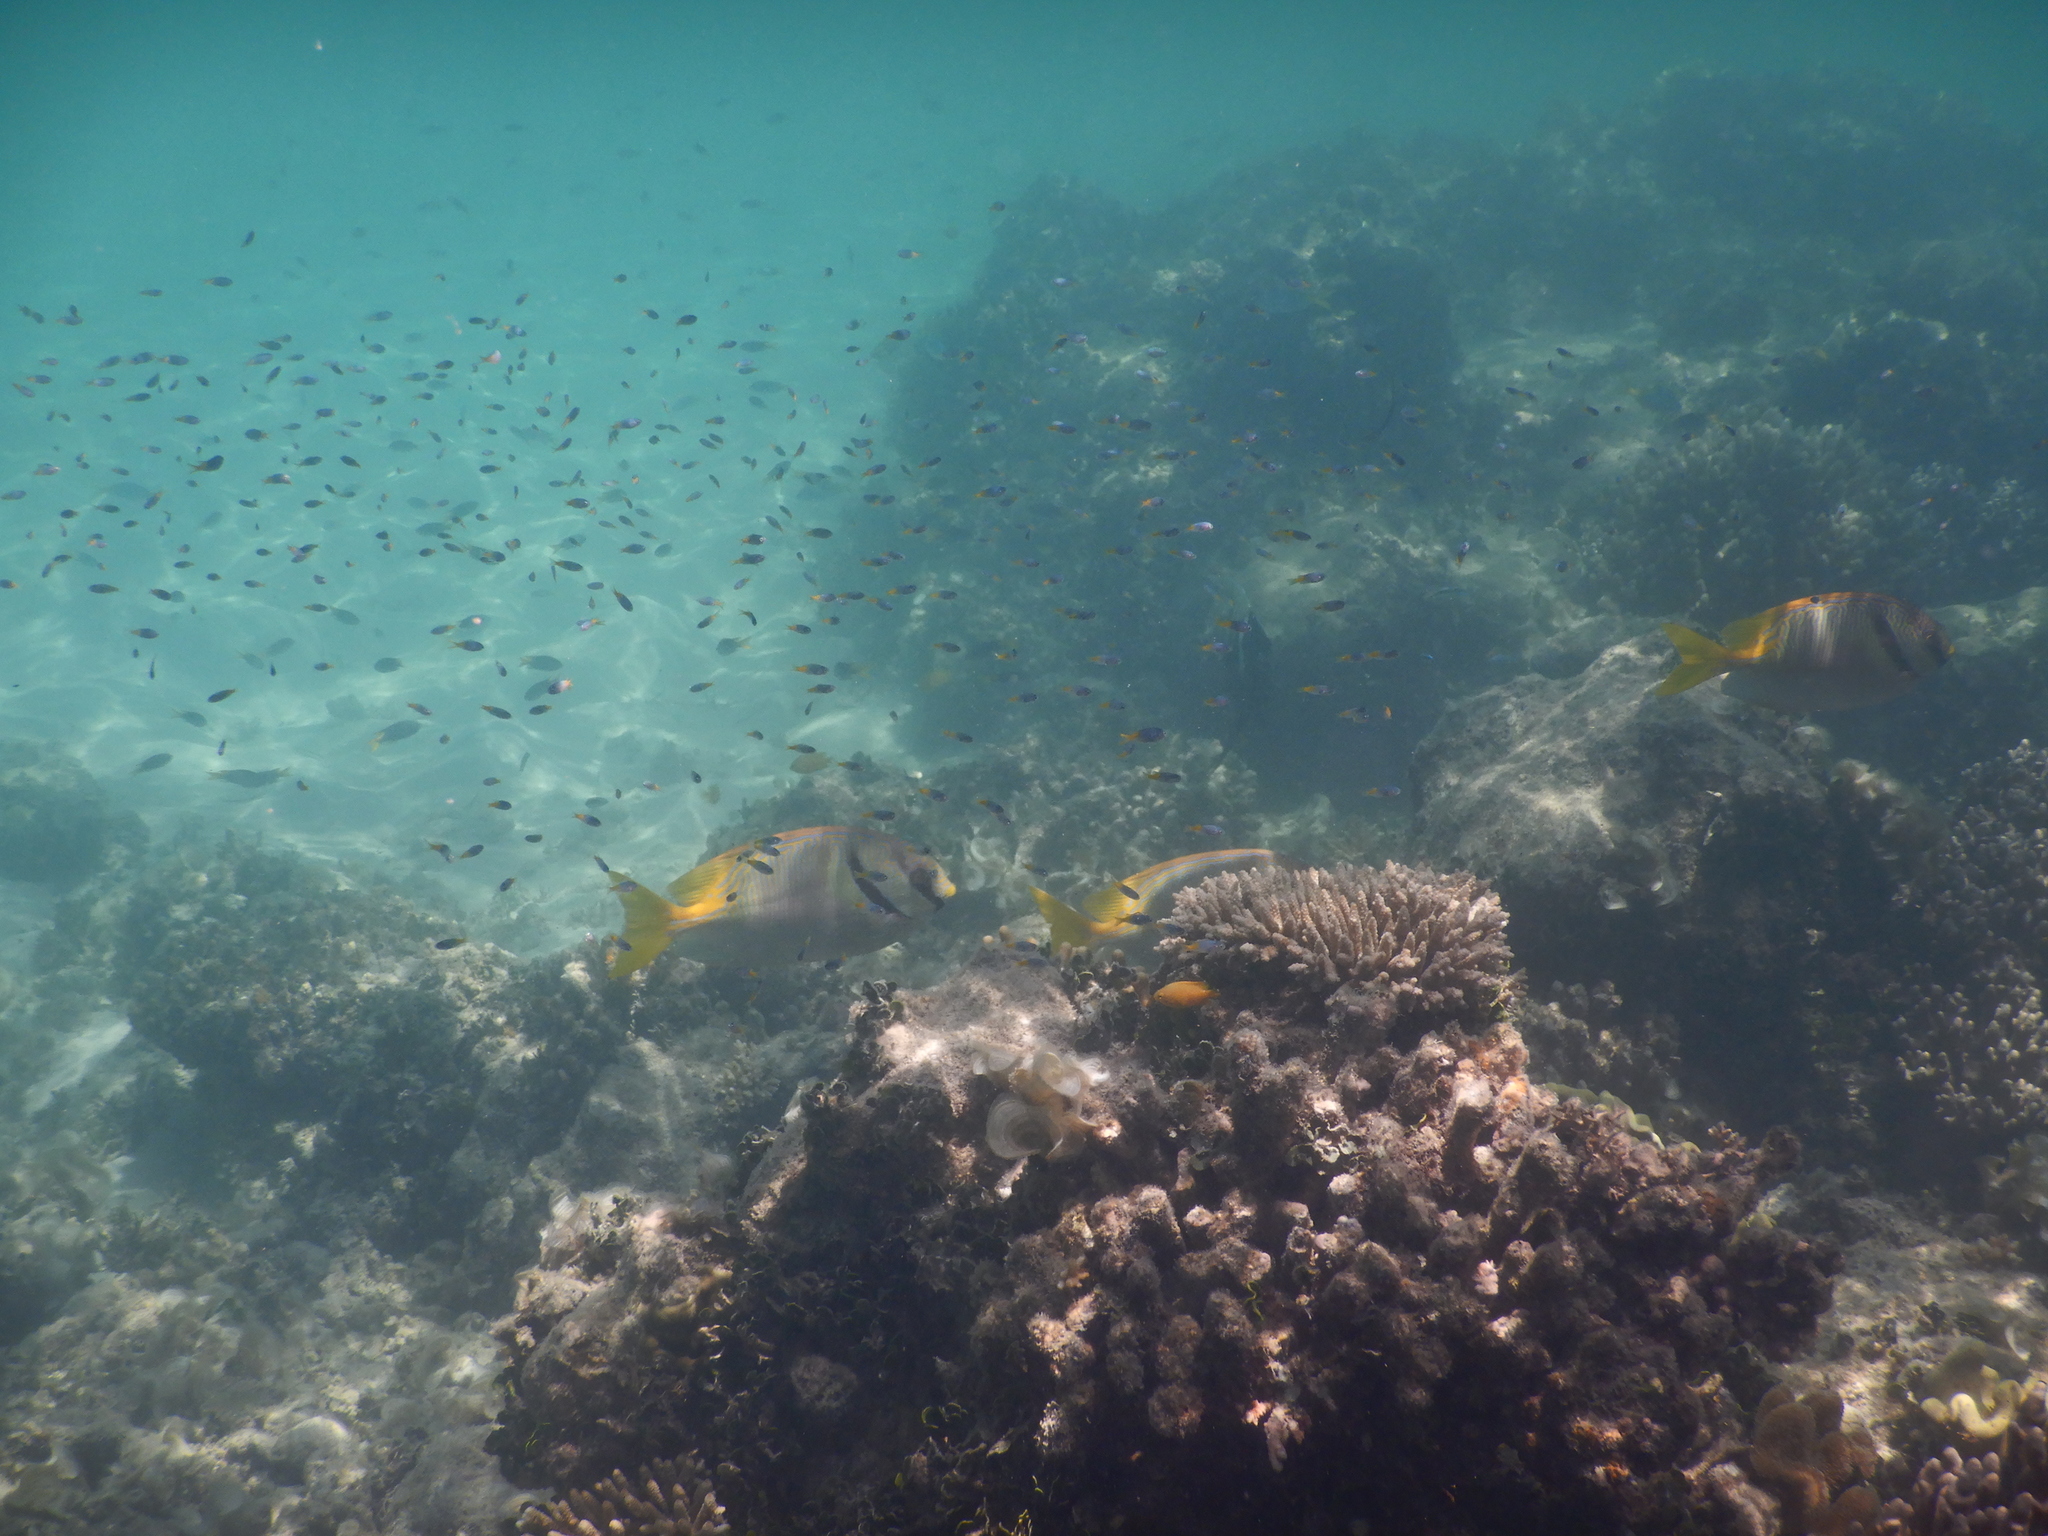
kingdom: Animalia
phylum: Chordata
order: Perciformes
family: Siganidae
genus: Siganus
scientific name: Siganus doliatus
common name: Barred spinefoot
